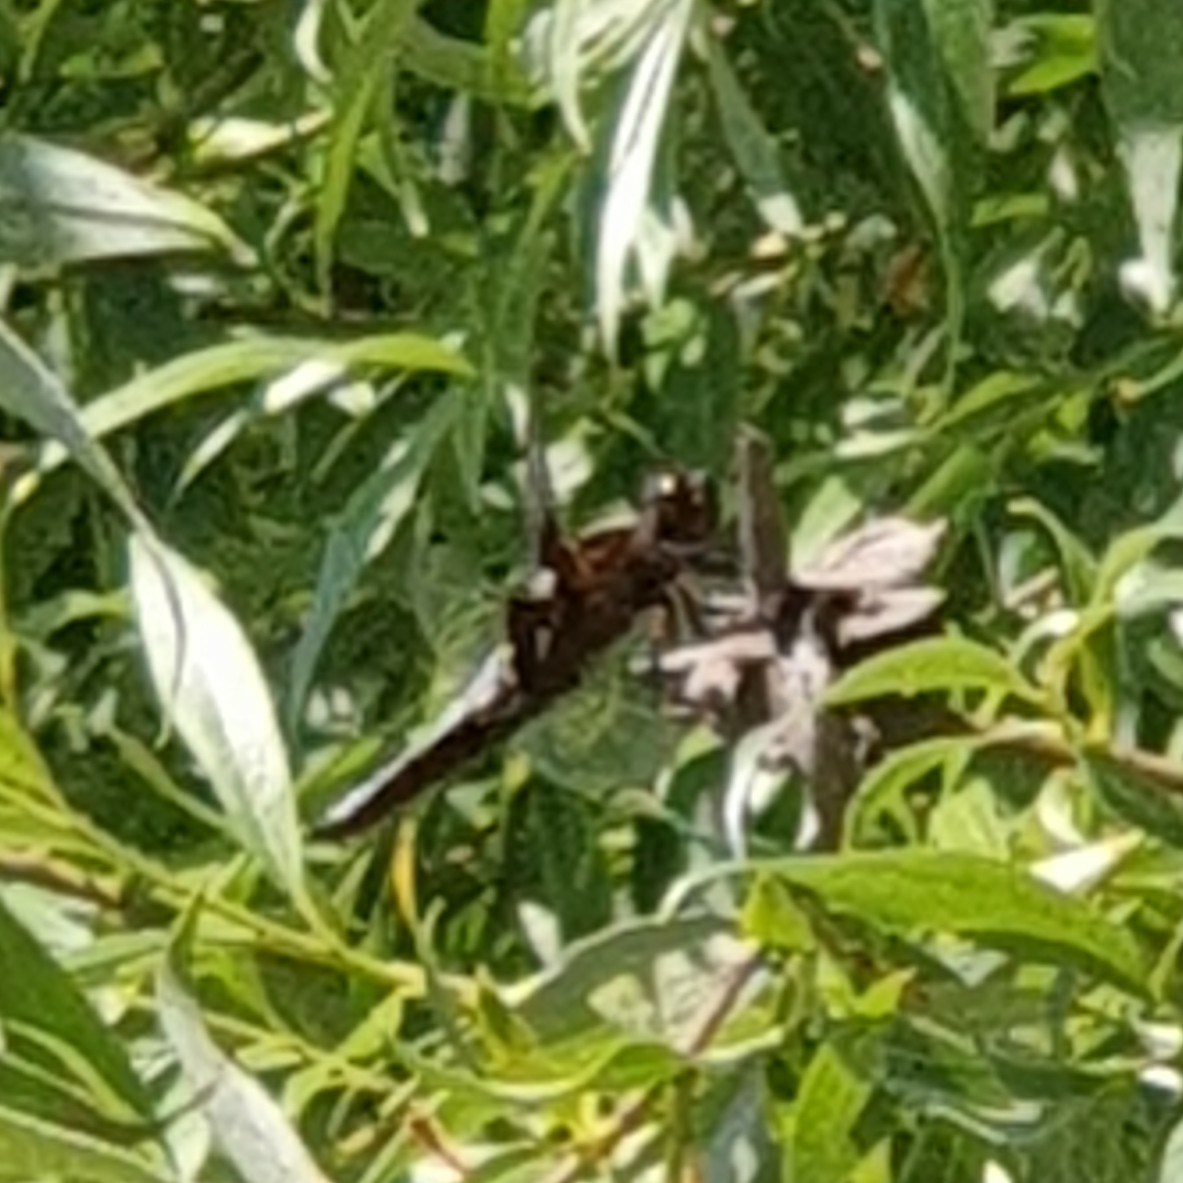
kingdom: Animalia
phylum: Arthropoda
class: Insecta
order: Odonata
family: Libellulidae
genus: Libellula
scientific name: Libellula depressa
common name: Broad-bodied chaser
